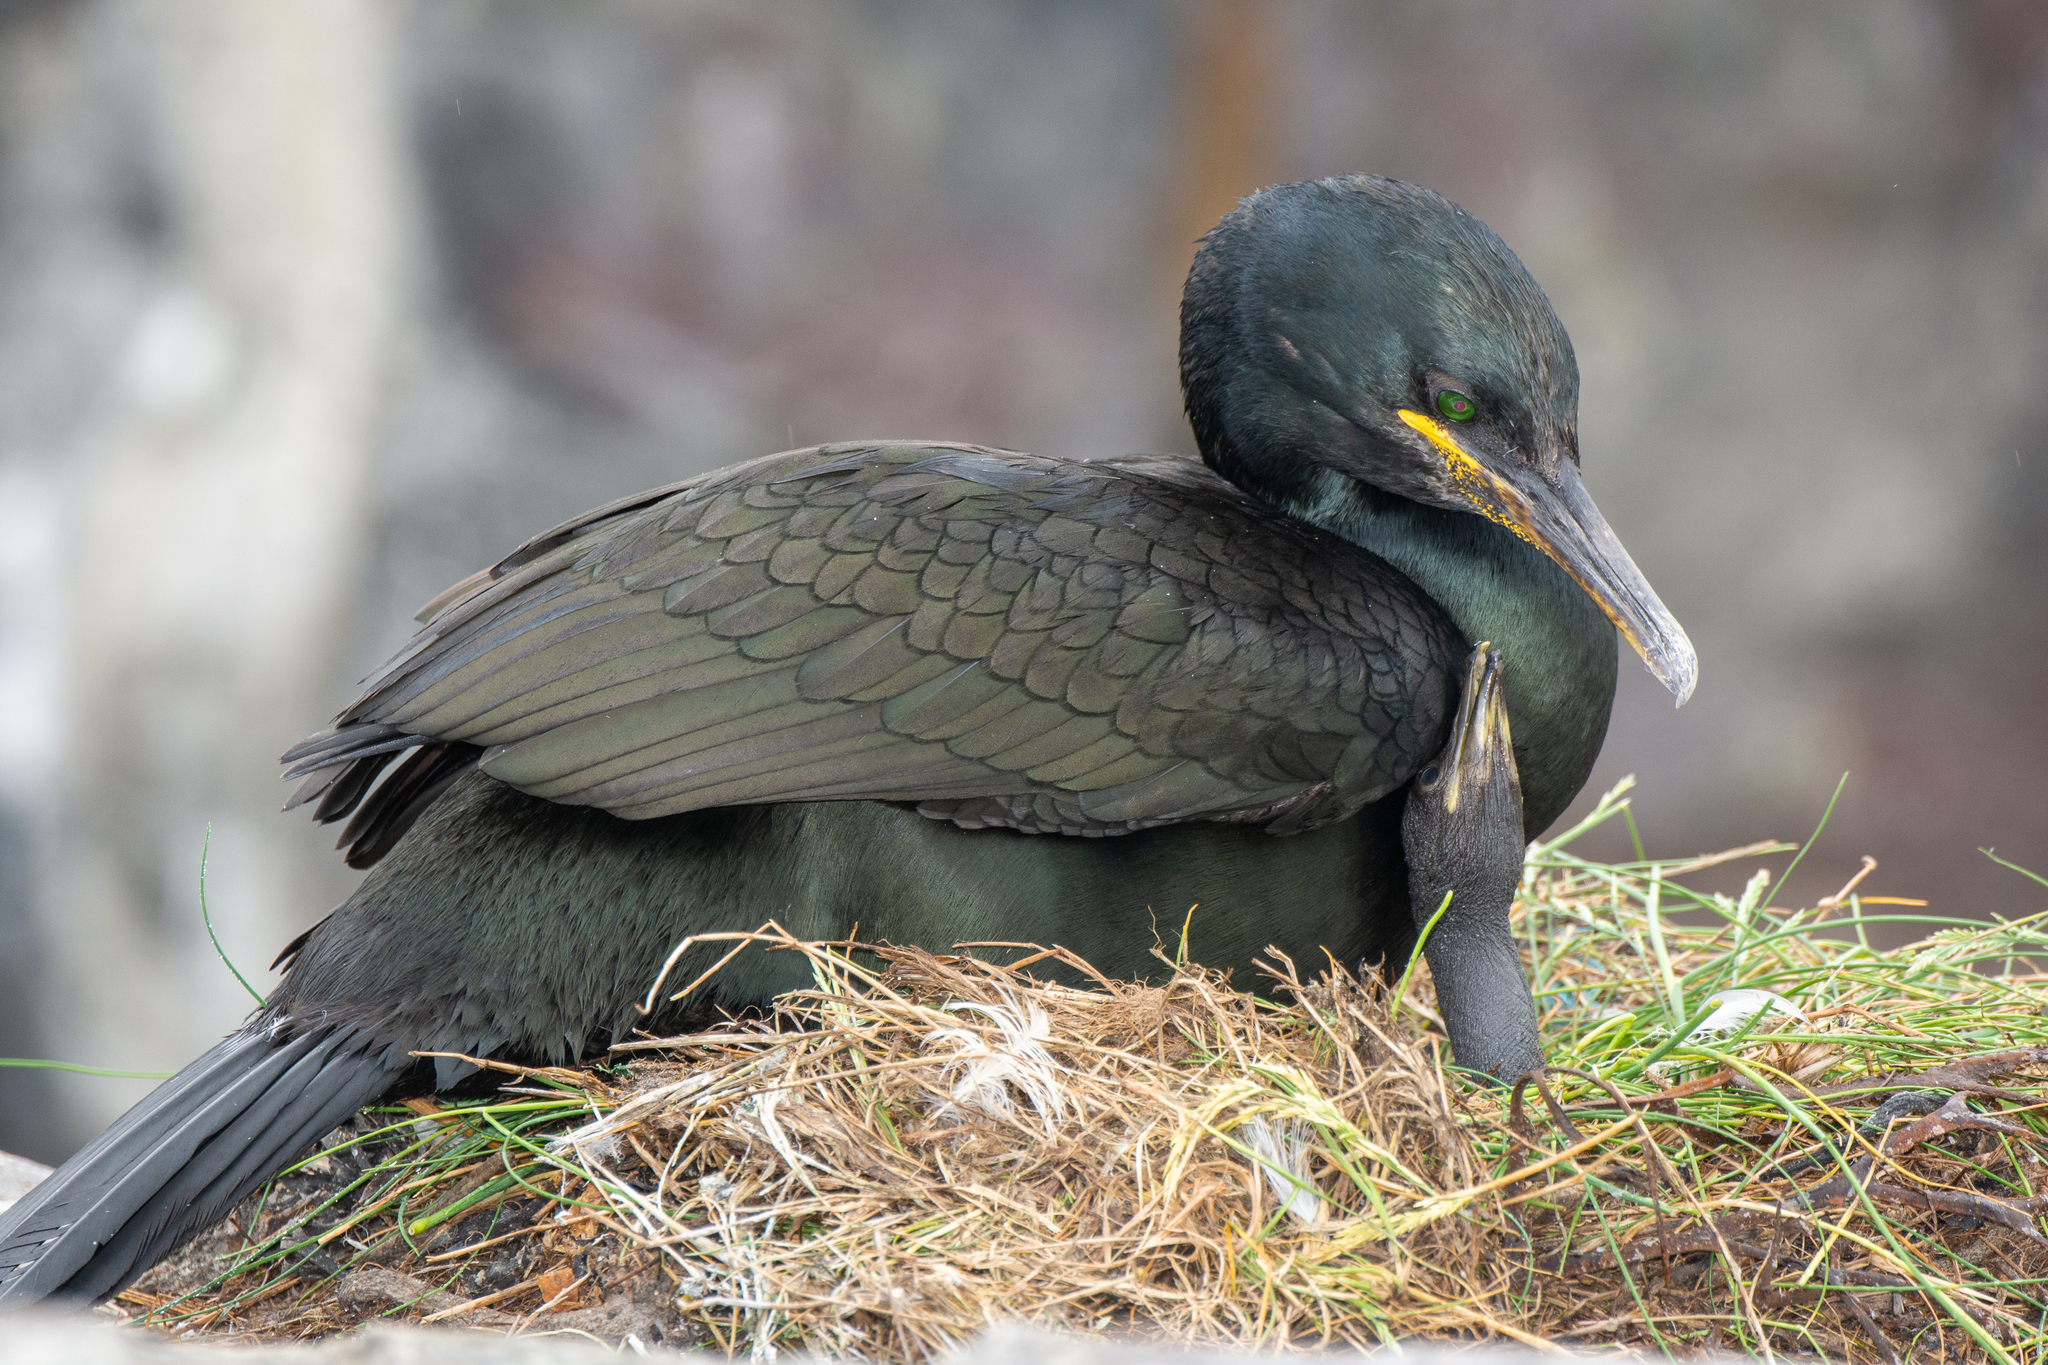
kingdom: Animalia
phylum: Chordata
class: Aves
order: Suliformes
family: Phalacrocoracidae
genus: Phalacrocorax
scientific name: Phalacrocorax aristotelis
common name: European shag
